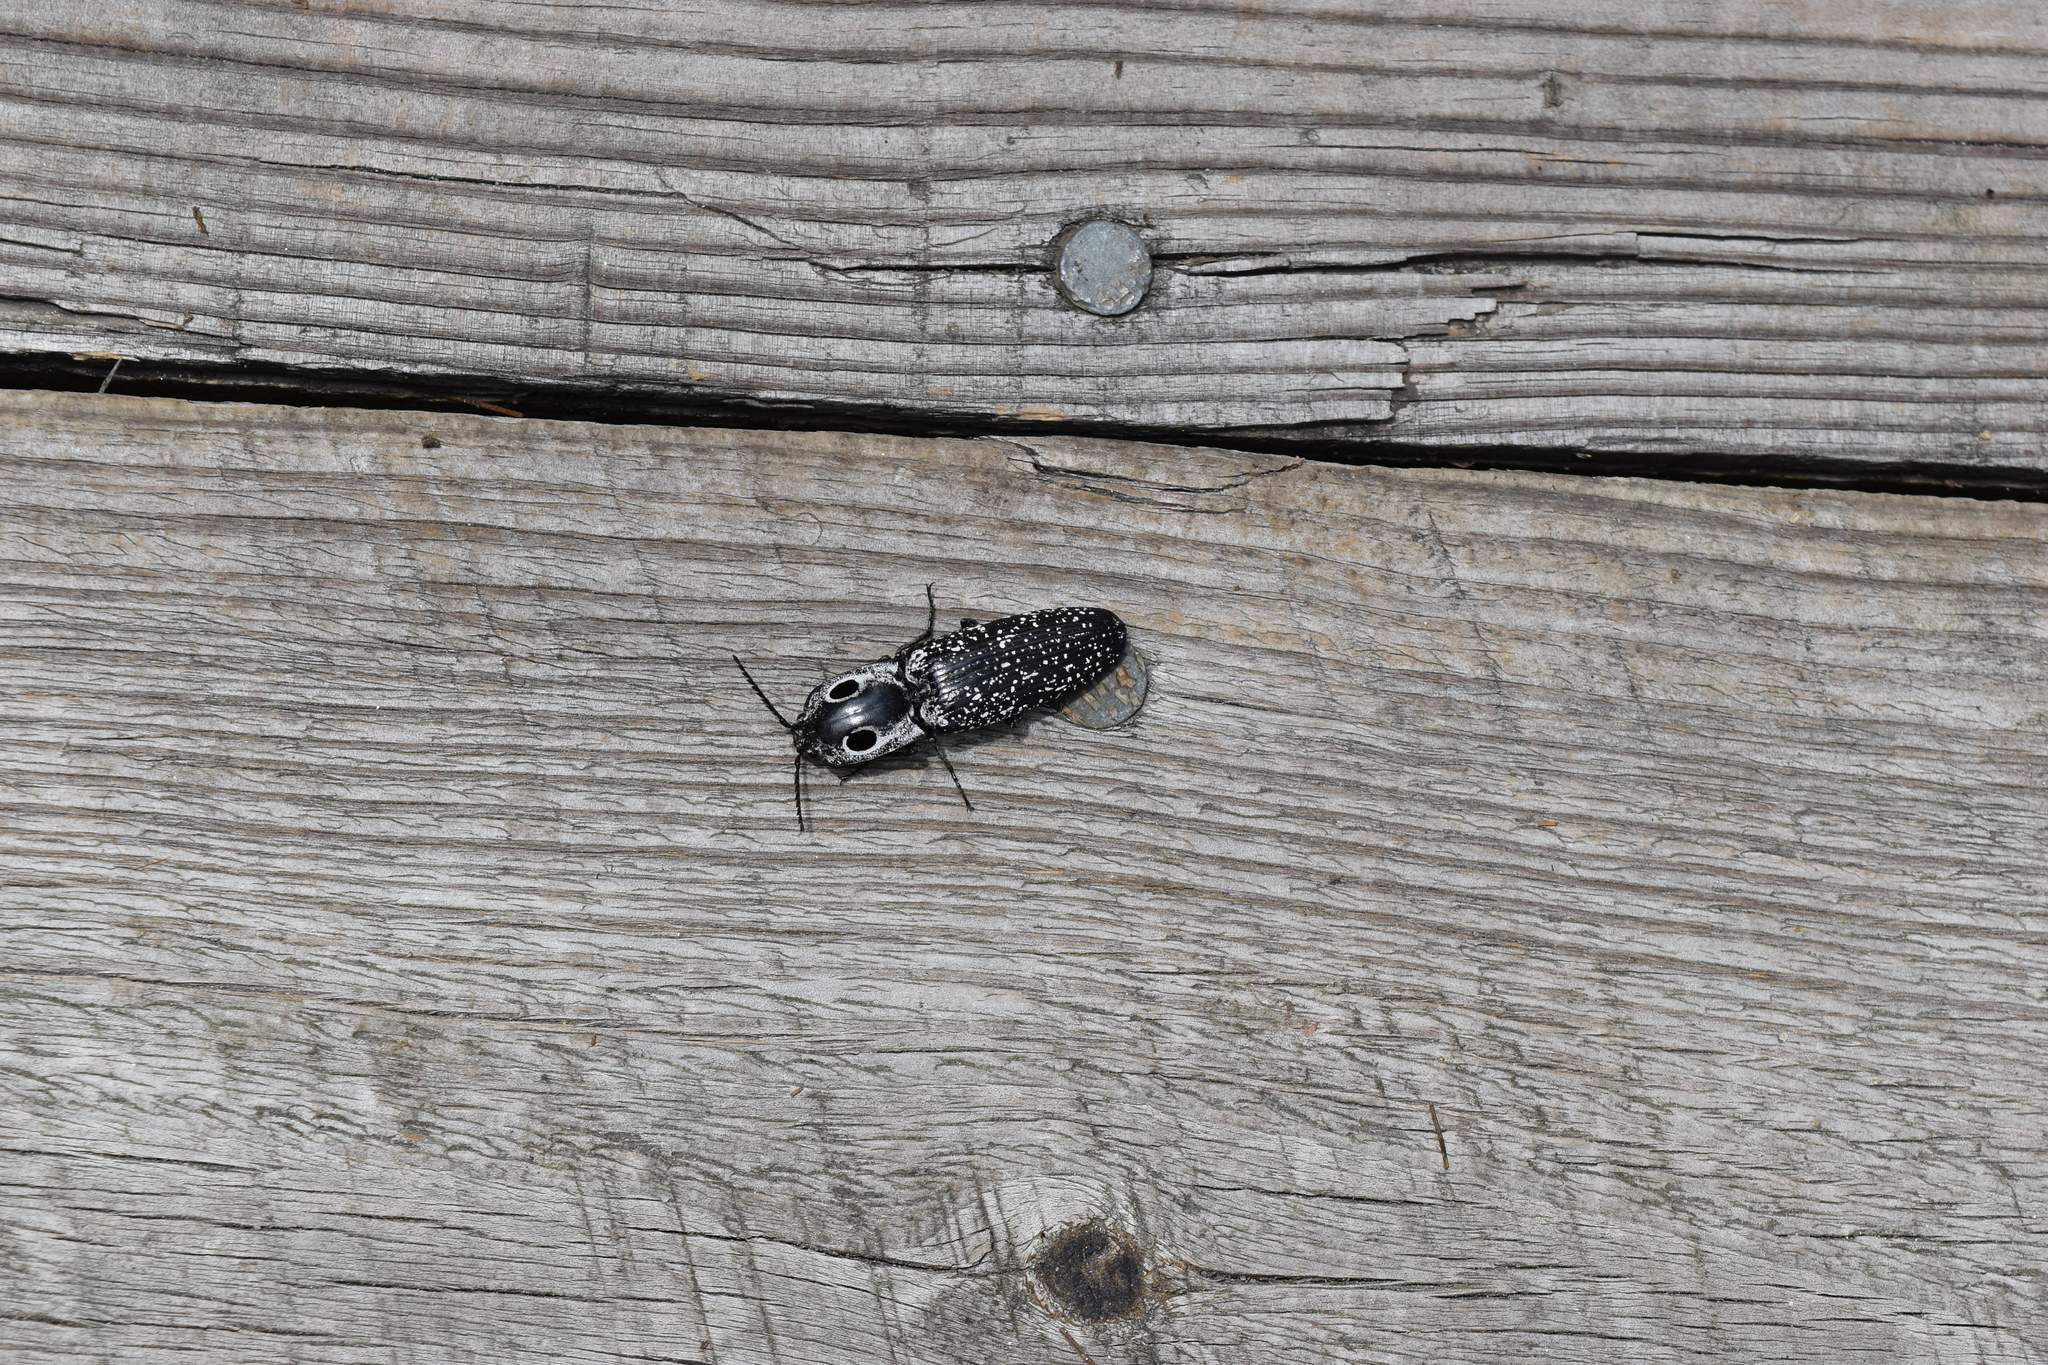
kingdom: Animalia
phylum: Arthropoda
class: Insecta
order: Coleoptera
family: Elateridae
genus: Alaus
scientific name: Alaus oculatus
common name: Eastern eyed click beetle
